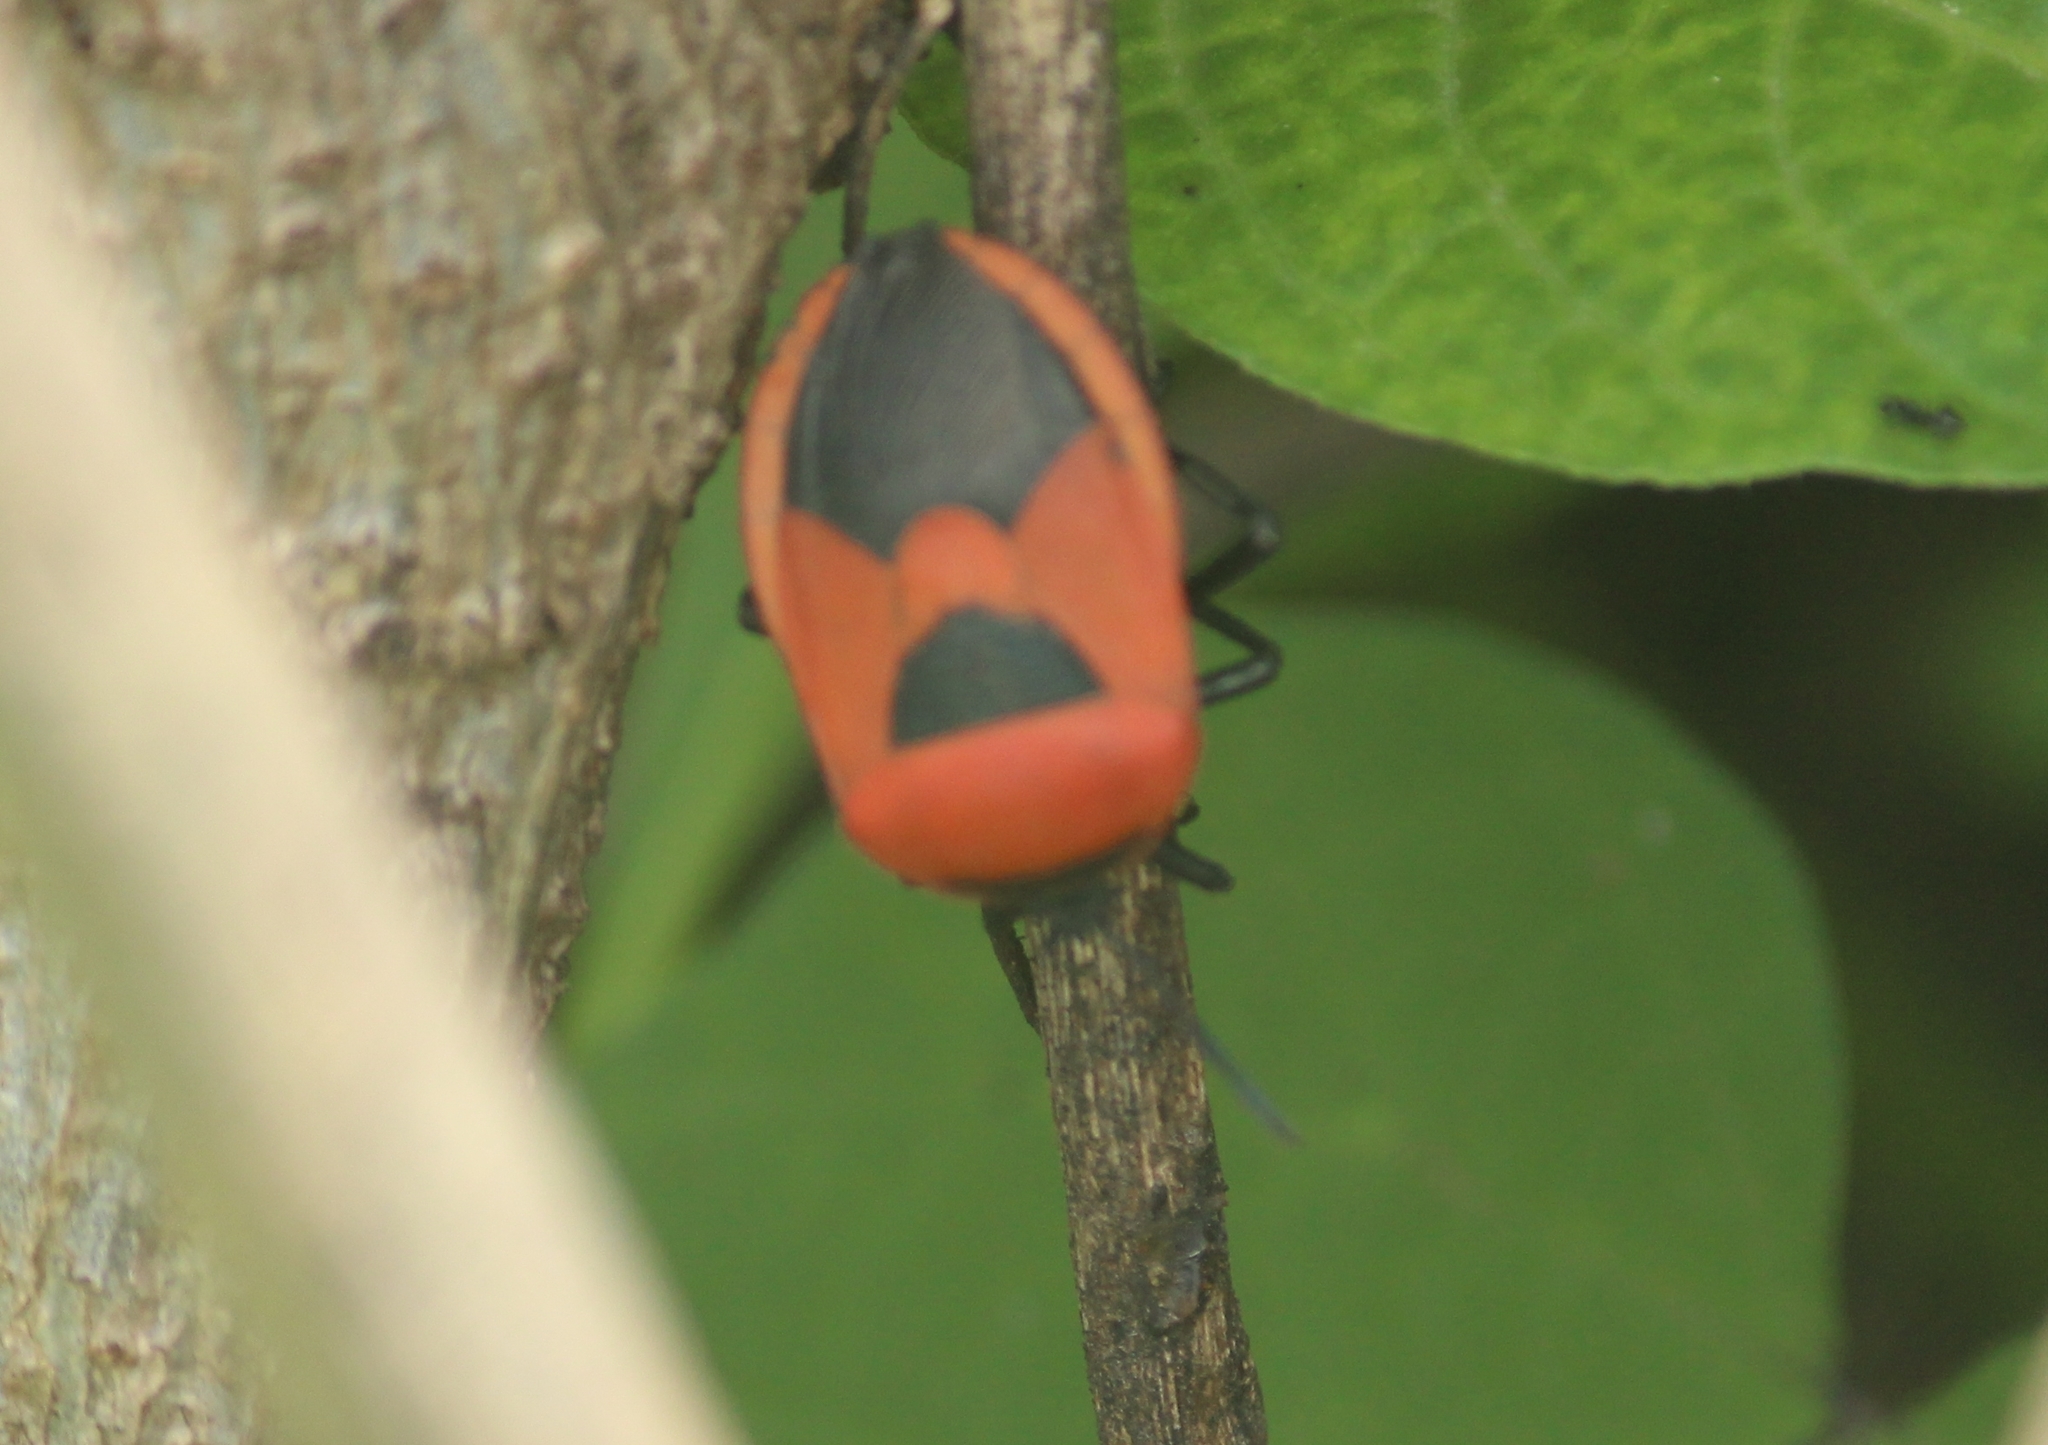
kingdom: Animalia
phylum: Arthropoda
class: Insecta
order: Hemiptera
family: Dinidoridae
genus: Coridius
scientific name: Coridius ianus
